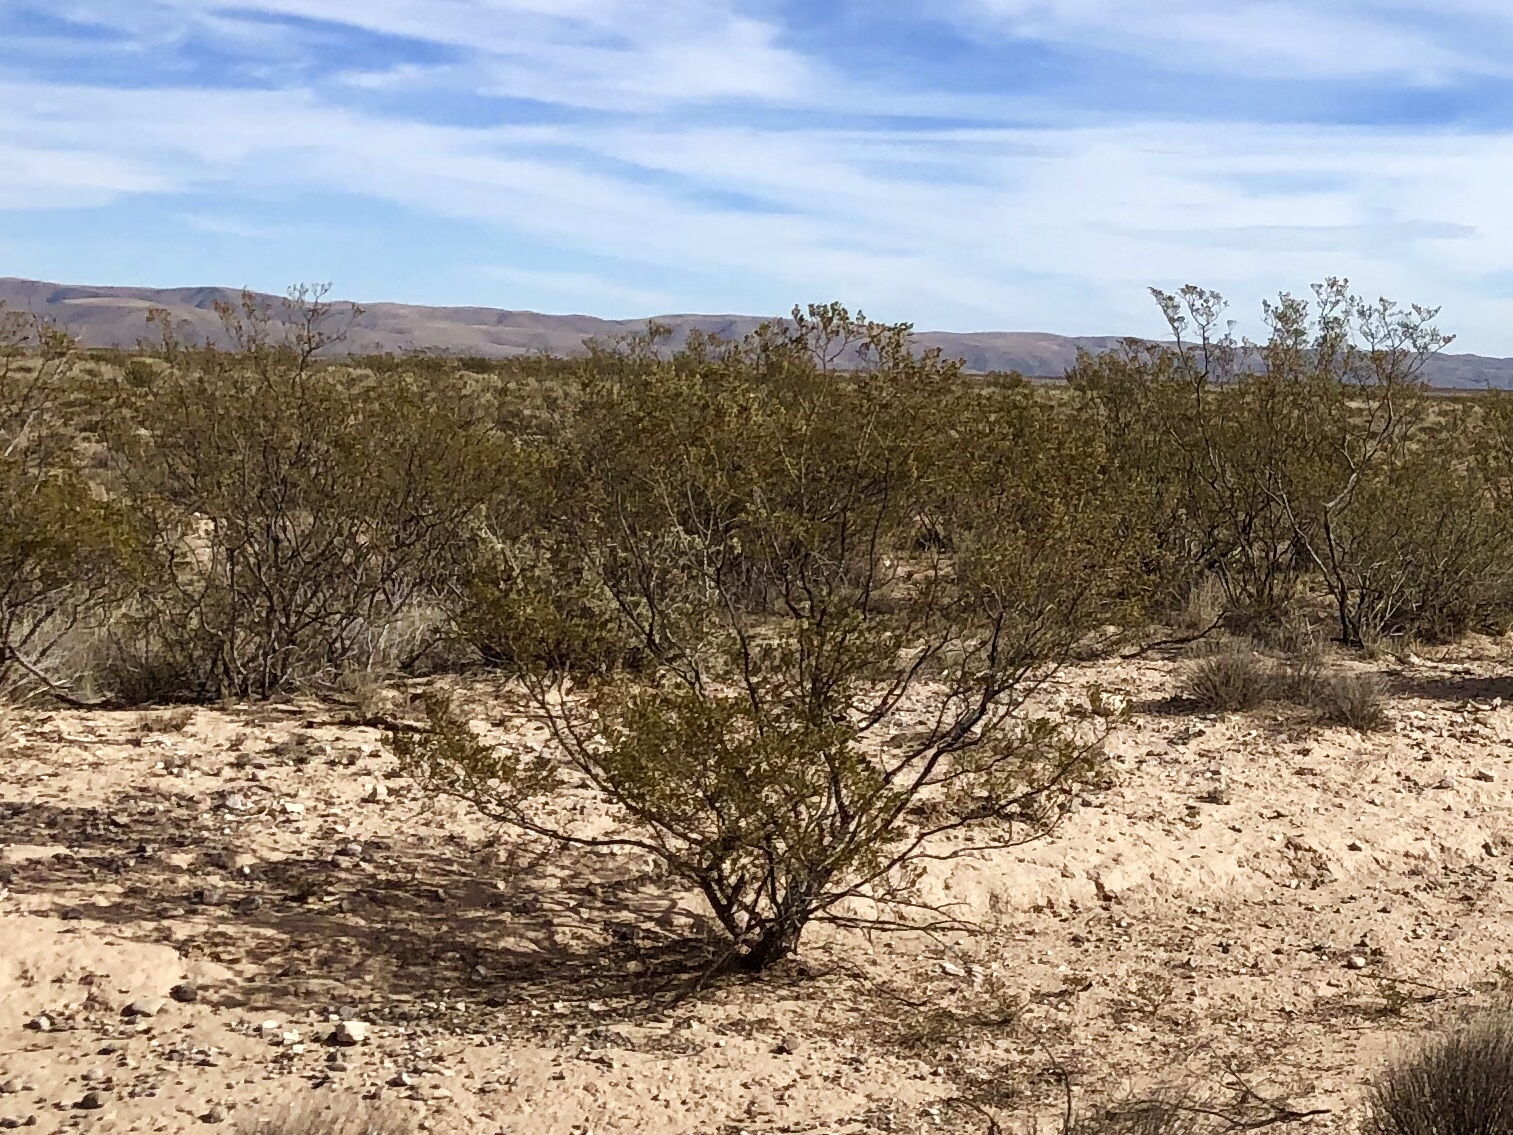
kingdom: Plantae
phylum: Tracheophyta
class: Magnoliopsida
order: Zygophyllales
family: Zygophyllaceae
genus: Larrea
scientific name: Larrea tridentata
